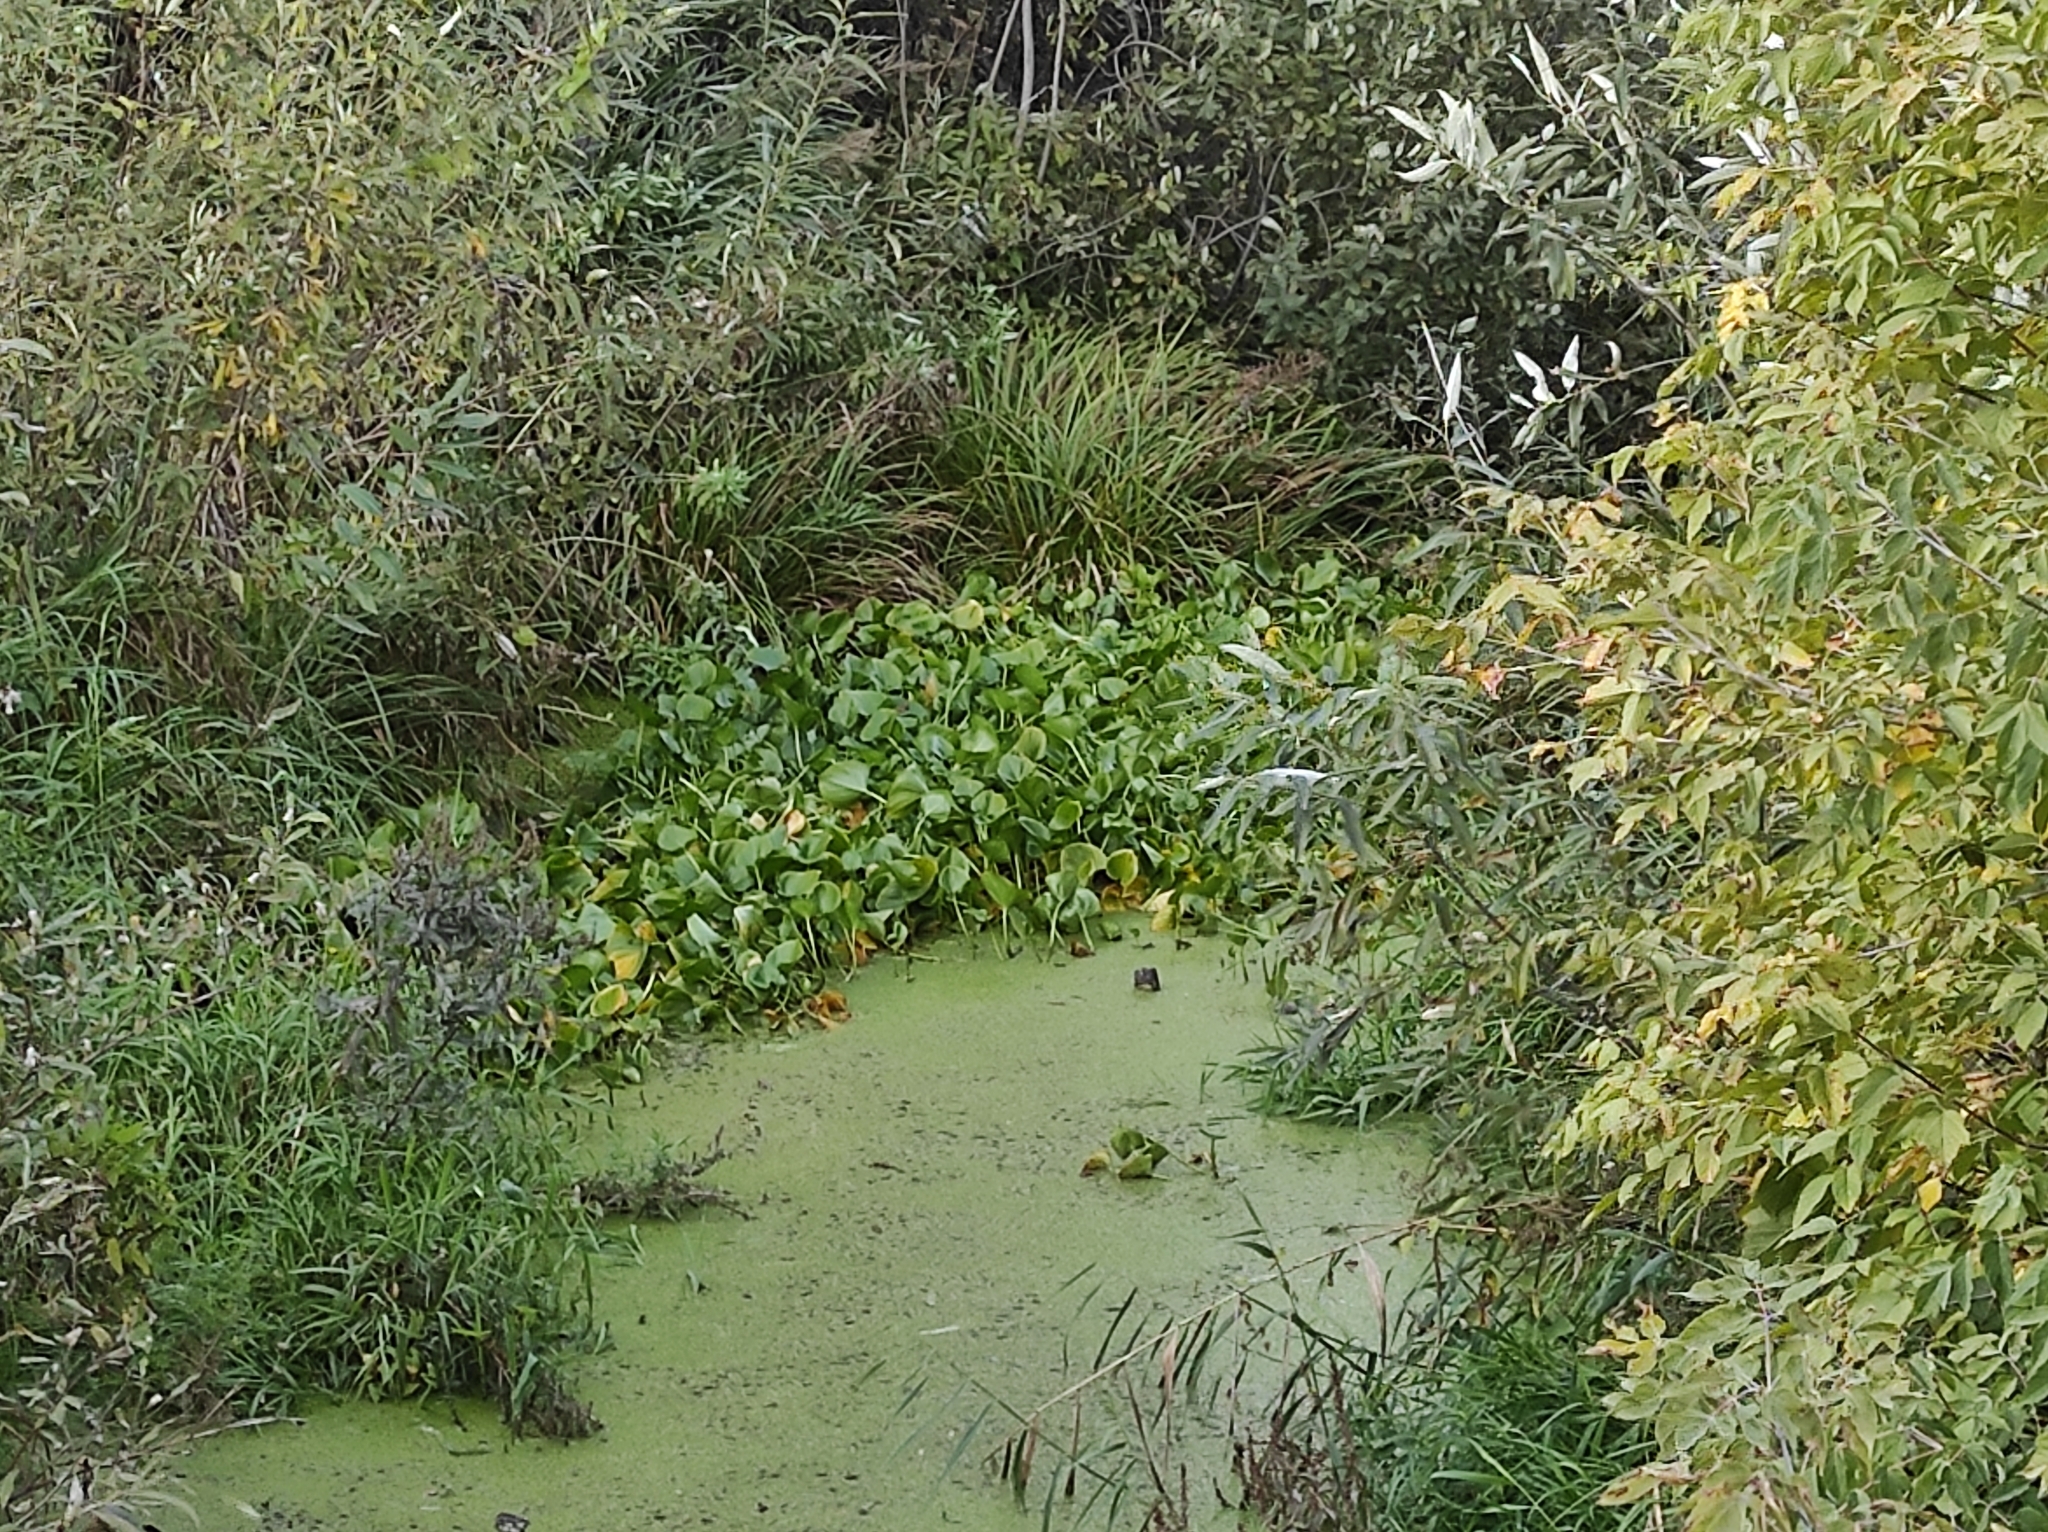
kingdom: Plantae
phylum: Tracheophyta
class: Liliopsida
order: Alismatales
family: Araceae
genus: Calla
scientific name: Calla palustris
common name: Bog arum
